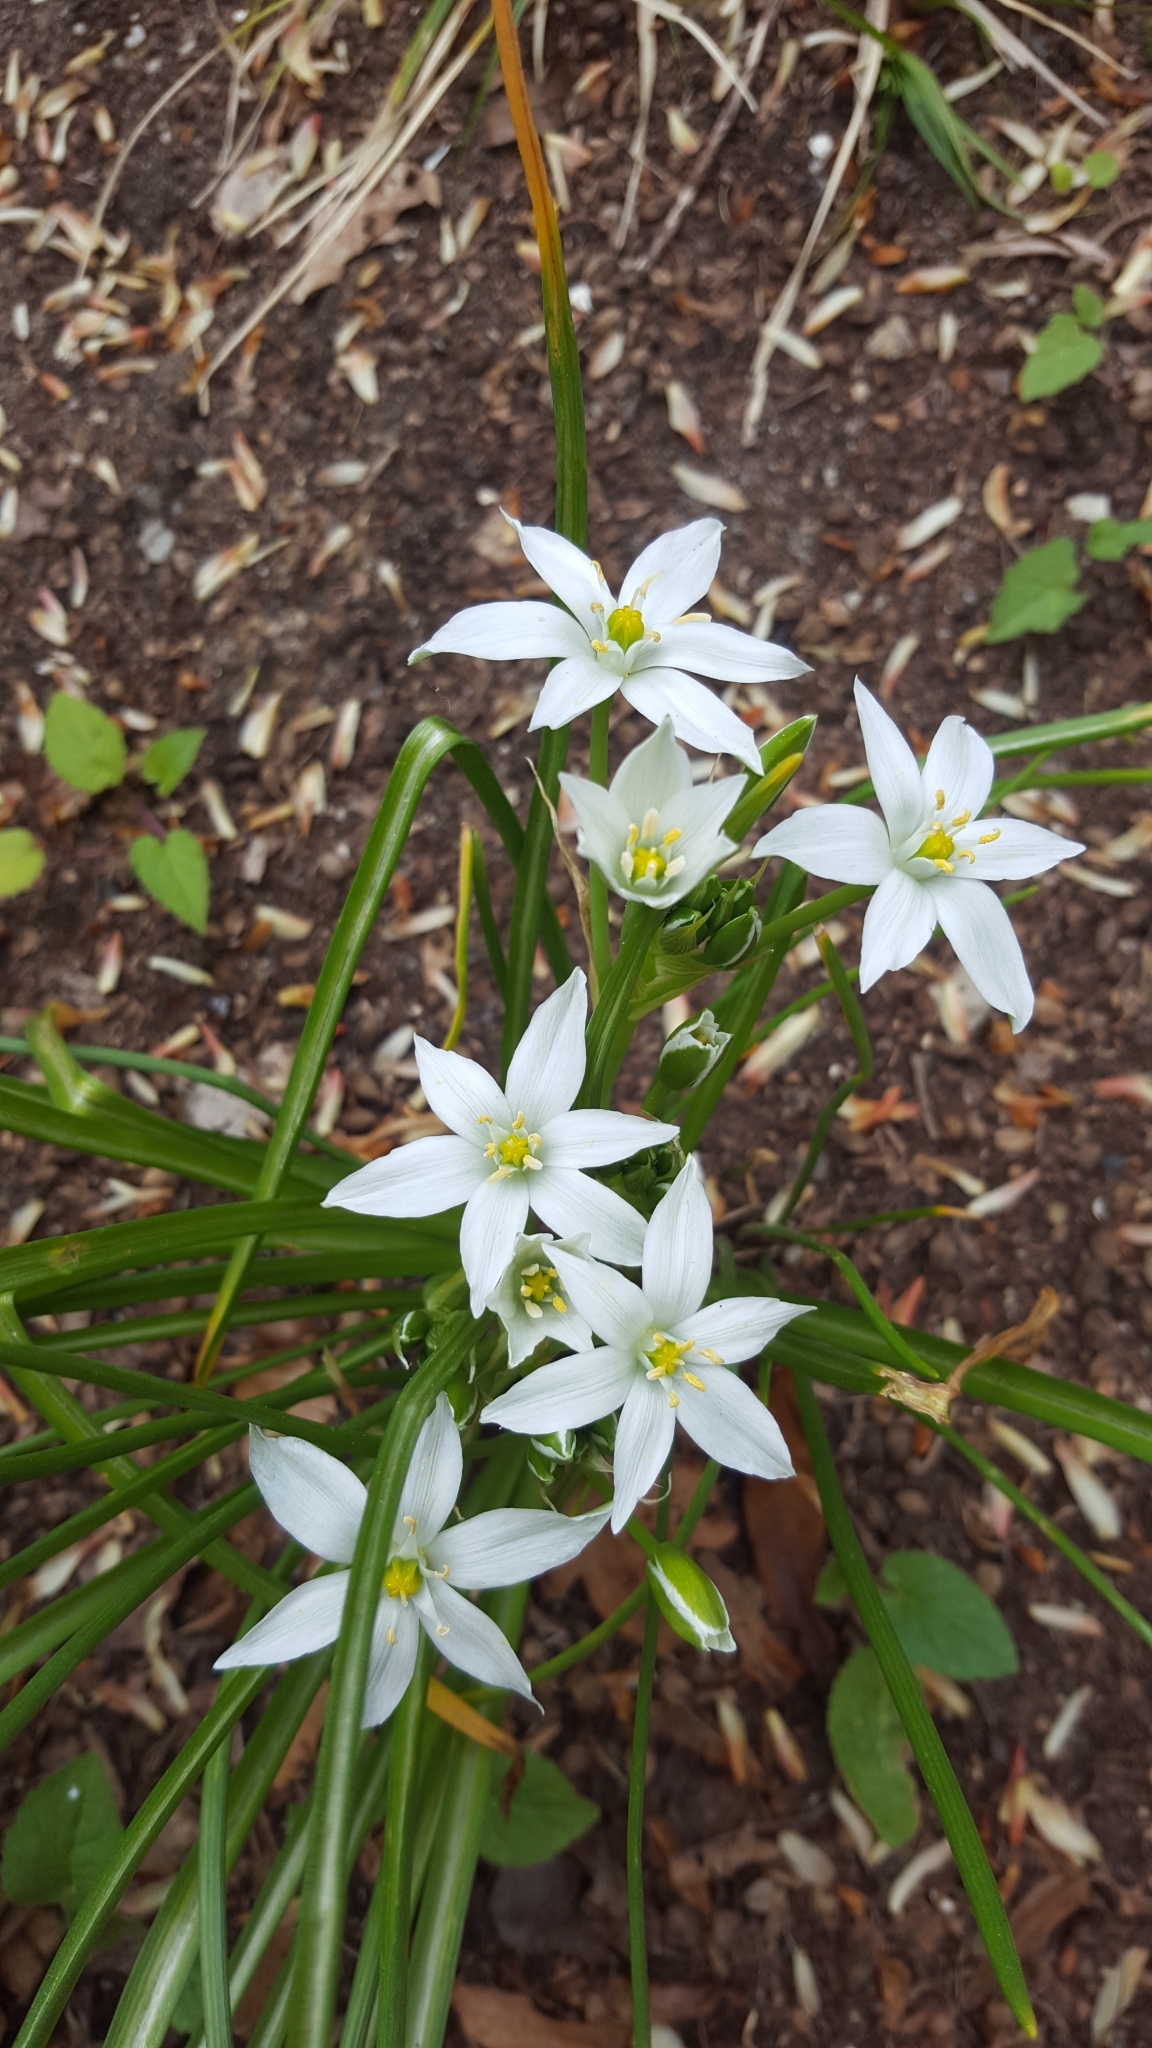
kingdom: Plantae
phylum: Tracheophyta
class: Liliopsida
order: Asparagales
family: Asparagaceae
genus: Ornithogalum
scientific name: Ornithogalum umbellatum
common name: Garden star-of-bethlehem
